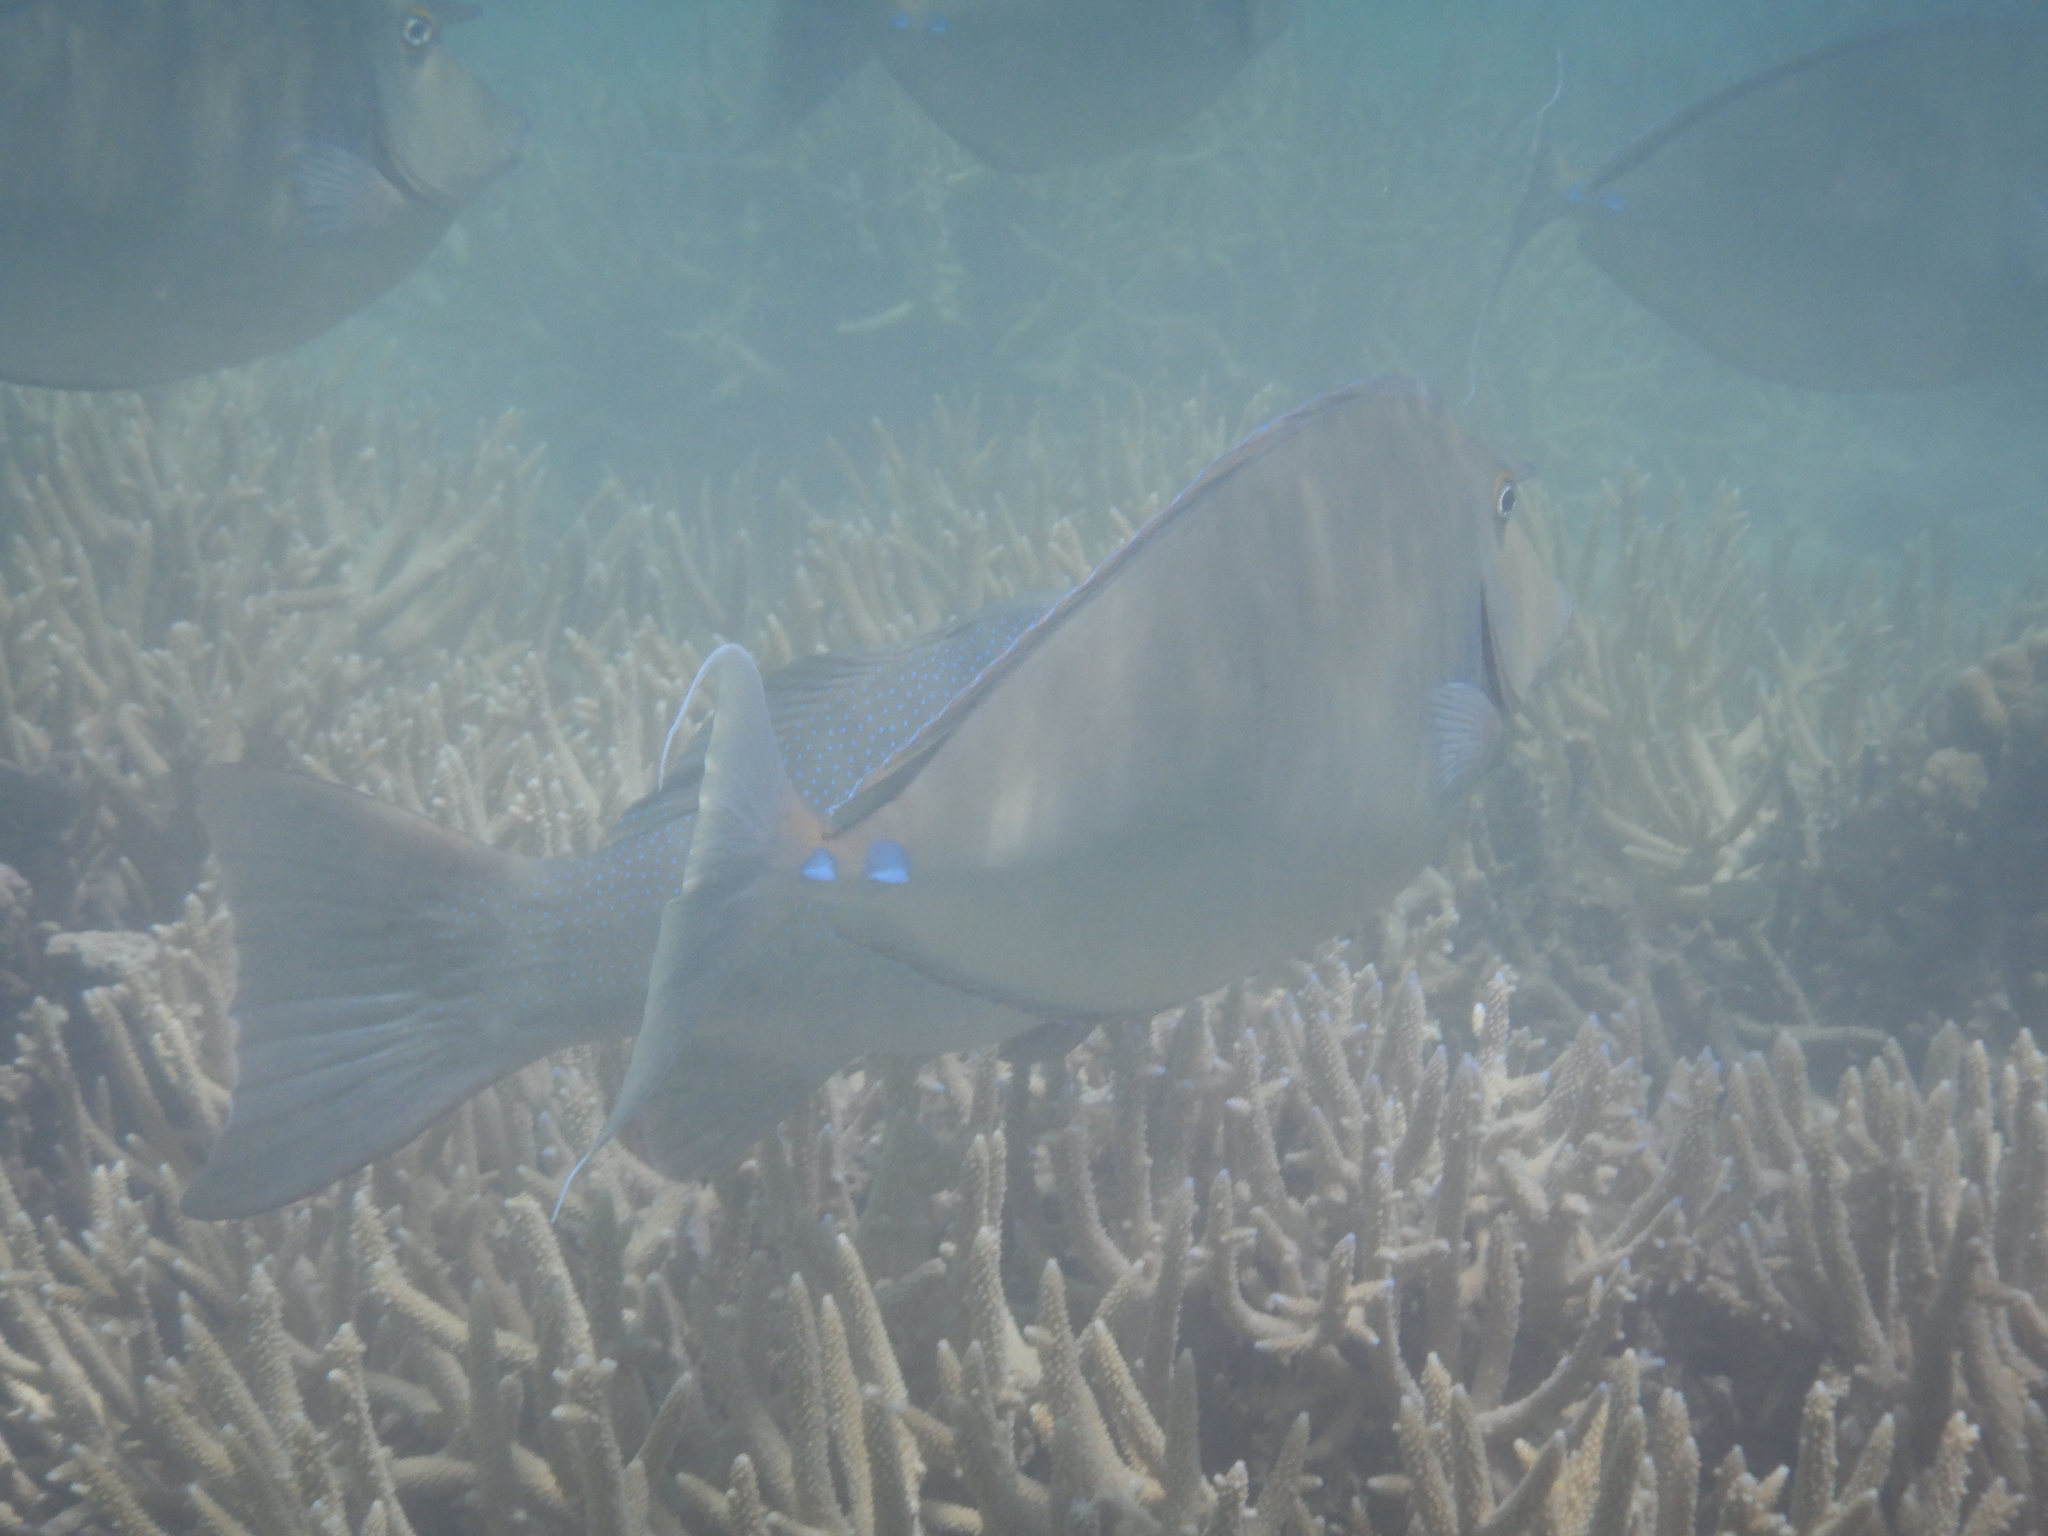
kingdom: Animalia
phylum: Chordata
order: Perciformes
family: Acanthuridae
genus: Naso
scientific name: Naso brachycentron
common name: Humpback unicornfish
